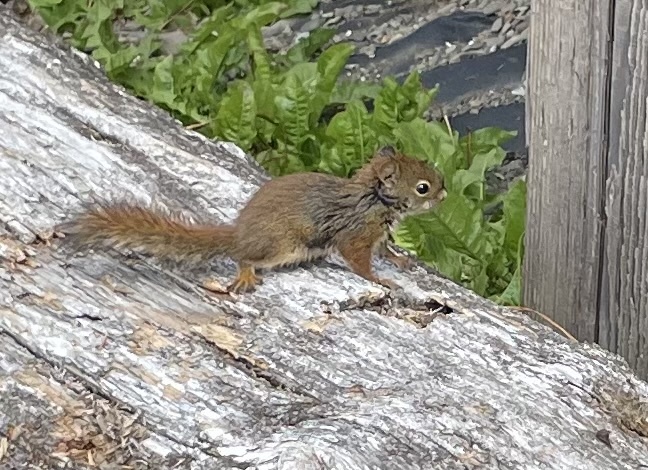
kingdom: Animalia
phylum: Chordata
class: Mammalia
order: Rodentia
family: Sciuridae
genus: Tamiasciurus
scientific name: Tamiasciurus hudsonicus
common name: Red squirrel
